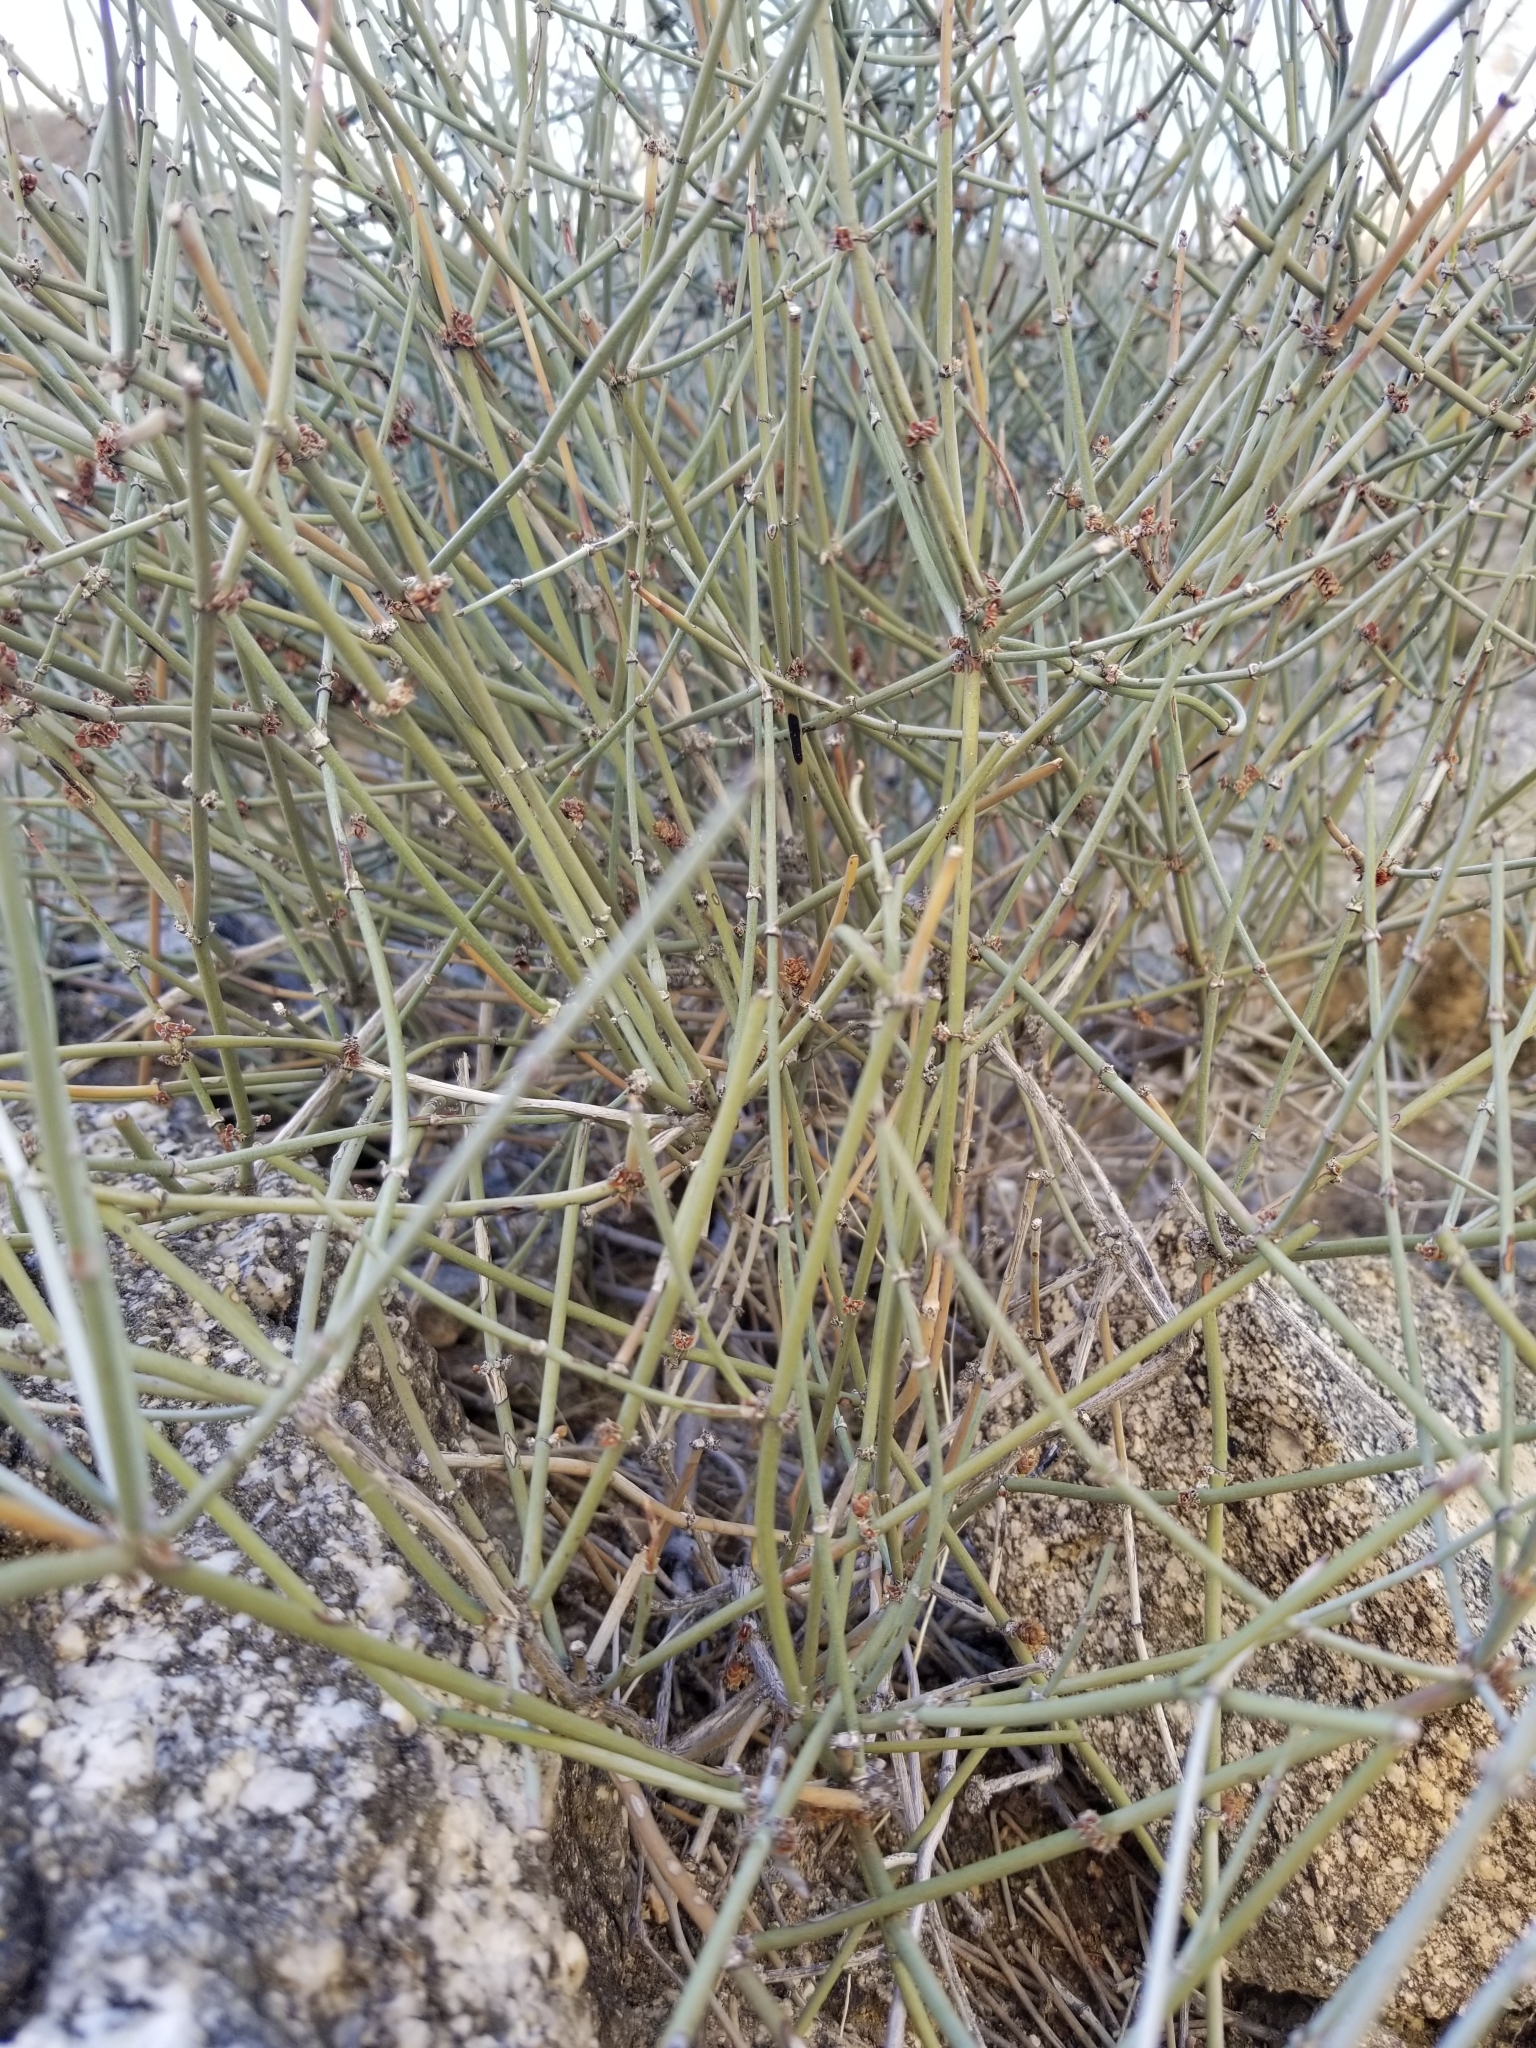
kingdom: Plantae
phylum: Tracheophyta
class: Gnetopsida
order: Ephedrales
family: Ephedraceae
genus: Ephedra
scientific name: Ephedra californica
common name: California ephedra
